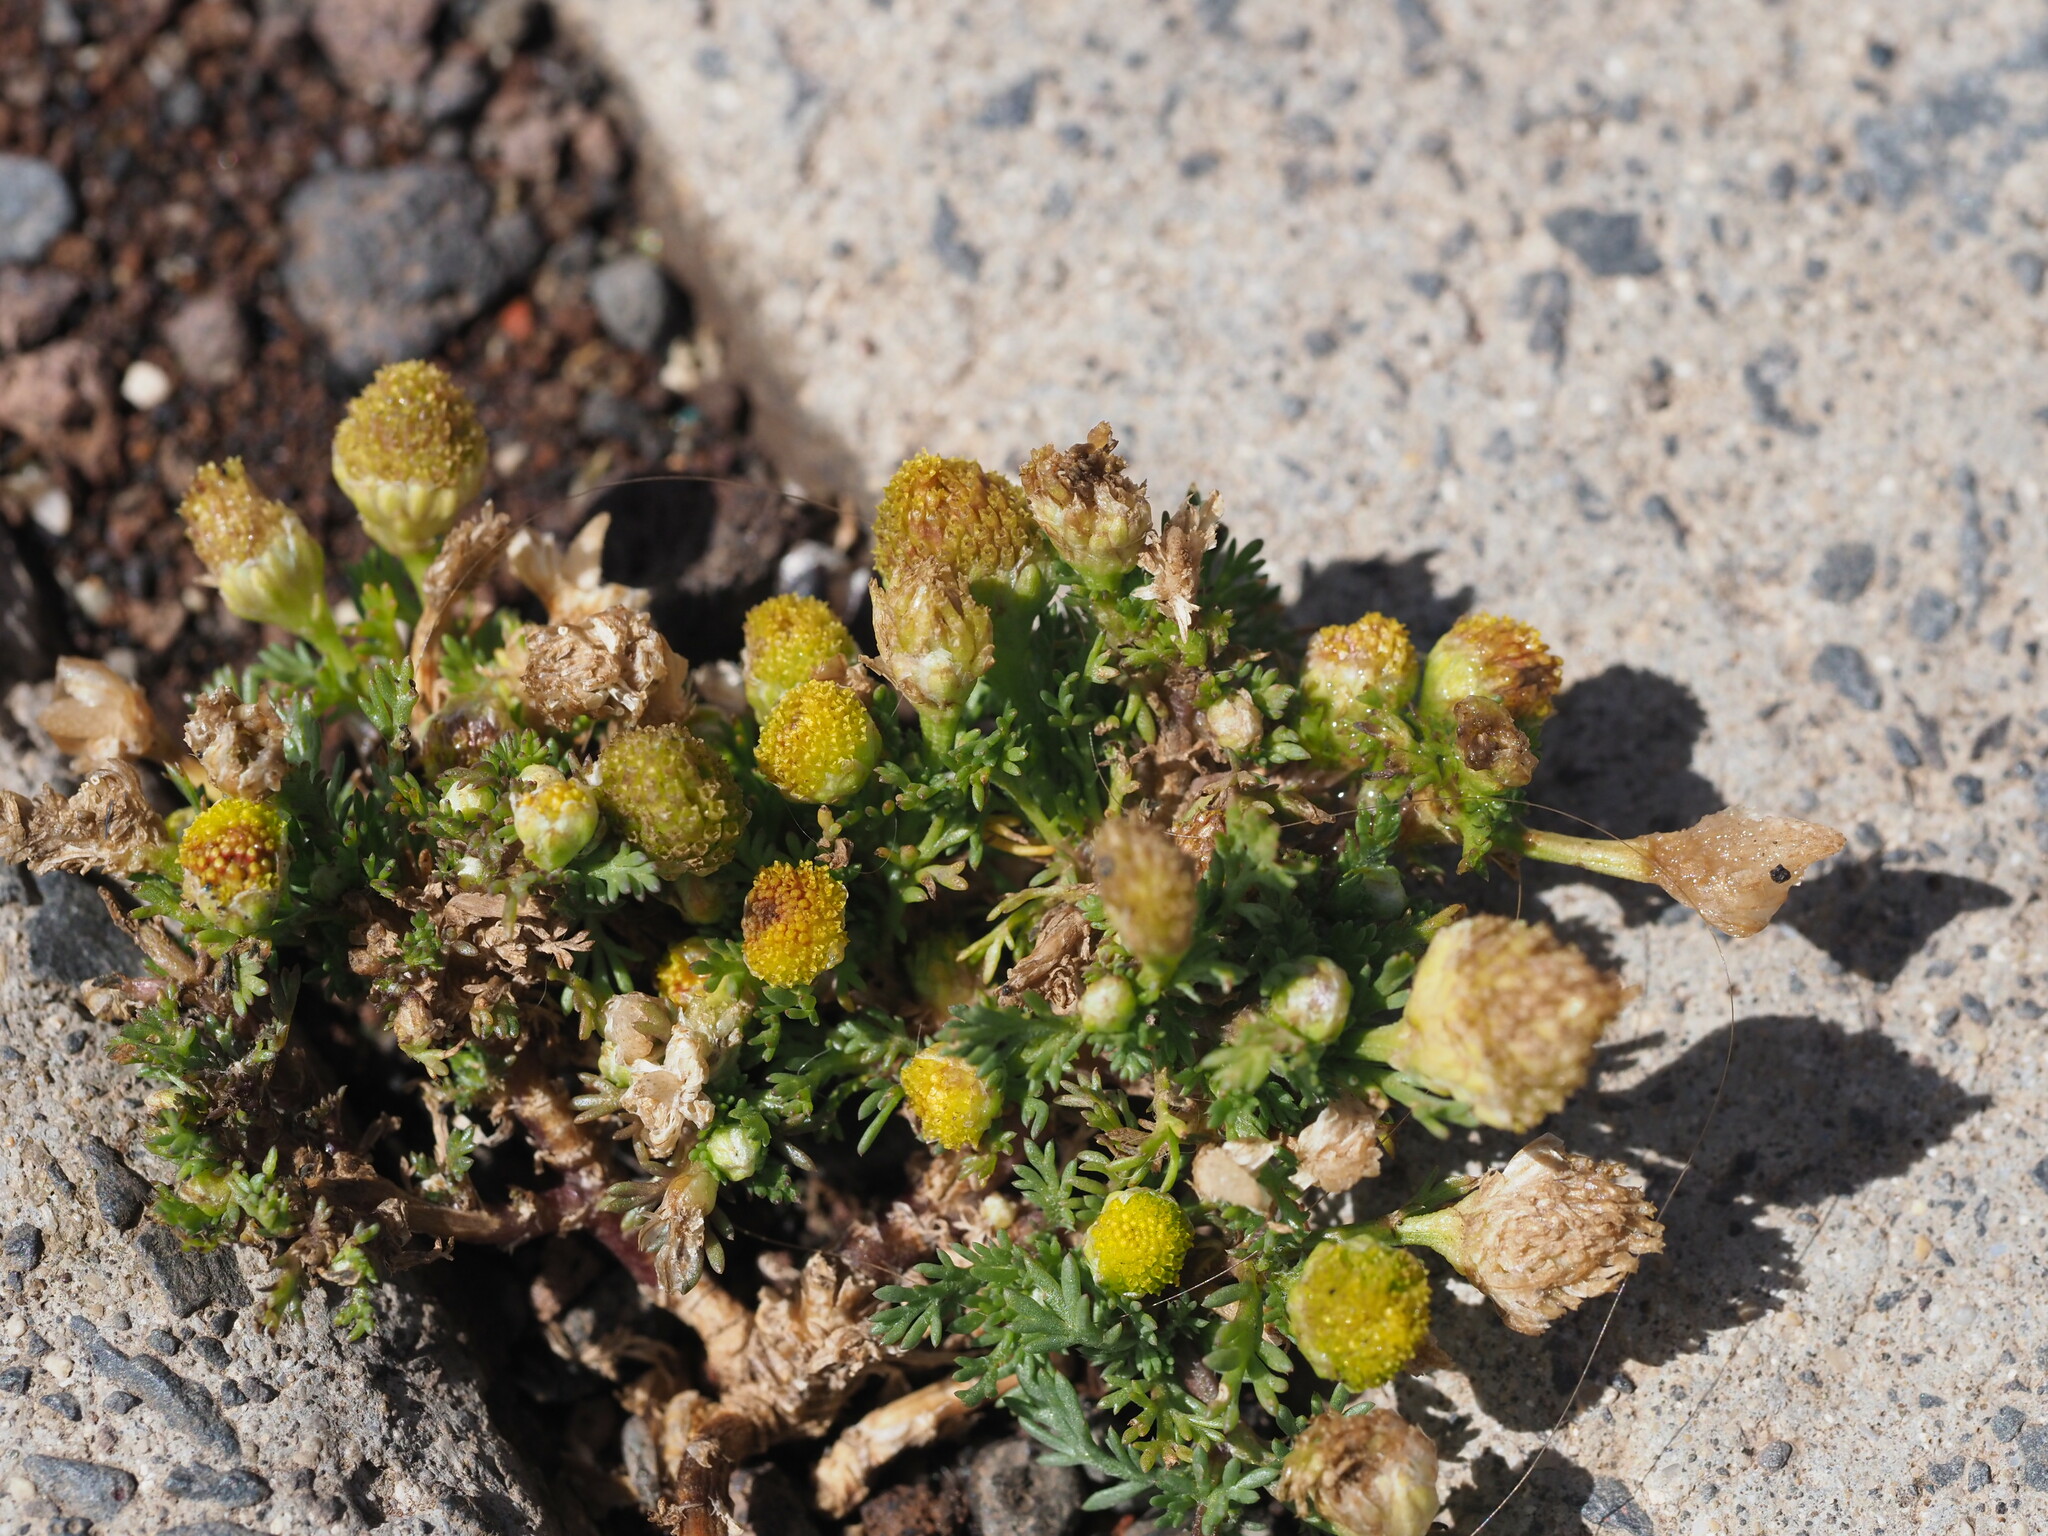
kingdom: Plantae
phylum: Tracheophyta
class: Magnoliopsida
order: Asterales
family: Asteraceae
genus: Matricaria
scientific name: Matricaria discoidea
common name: Disc mayweed
